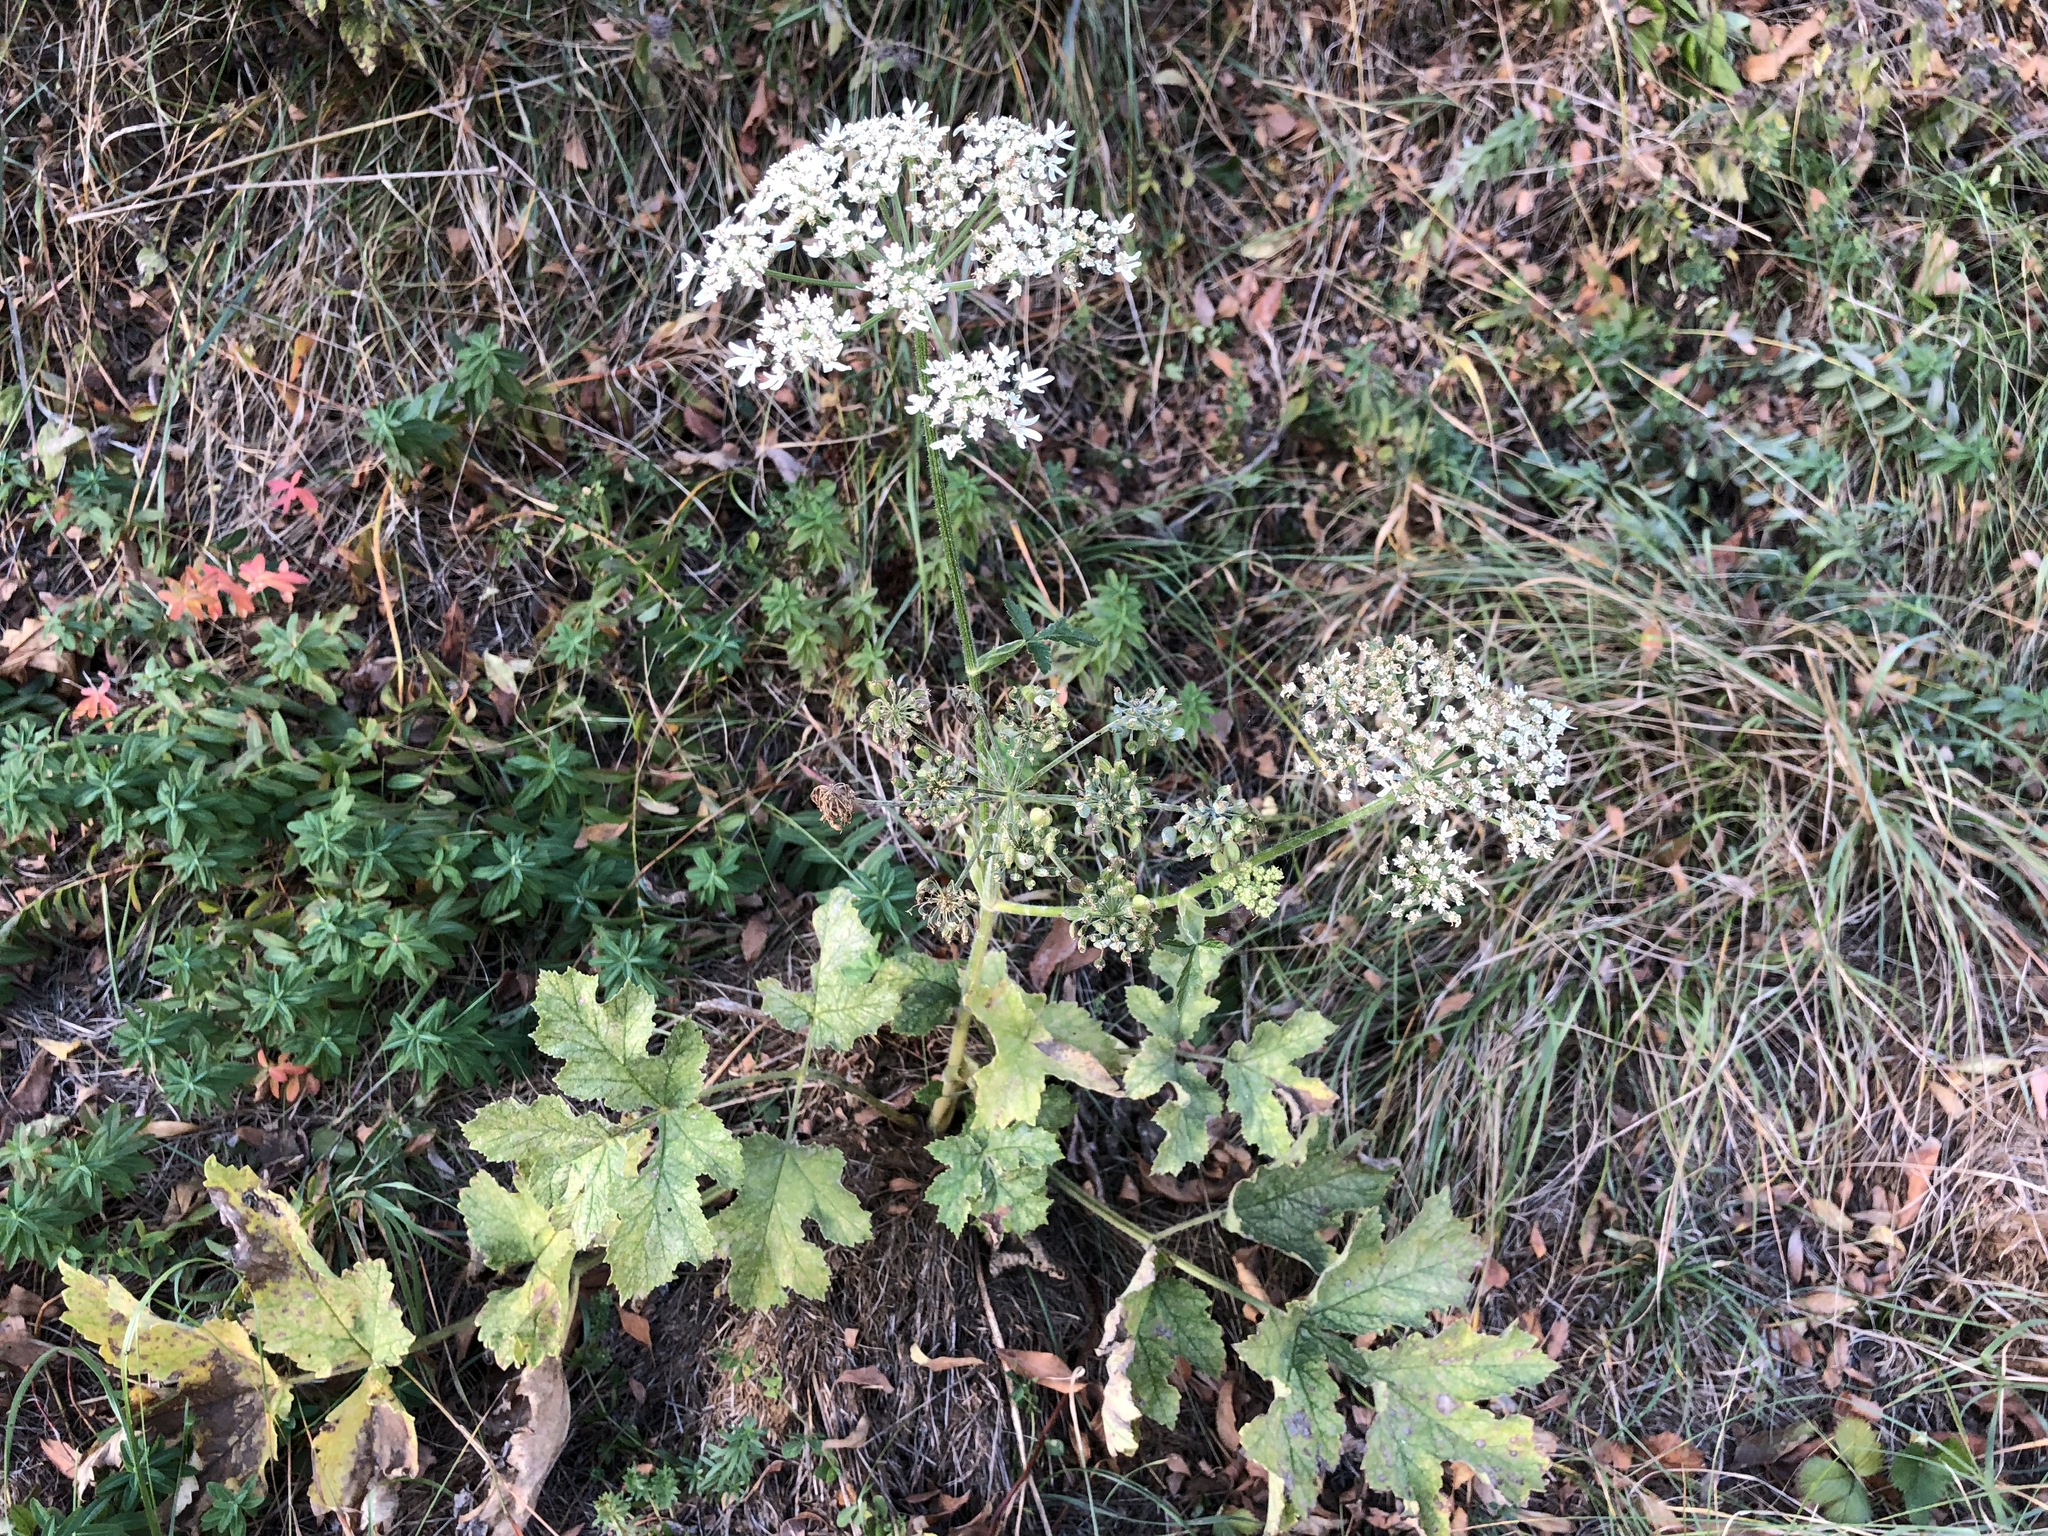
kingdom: Plantae
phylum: Tracheophyta
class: Magnoliopsida
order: Apiales
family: Apiaceae
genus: Heracleum
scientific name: Heracleum sphondylium
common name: Hogweed
